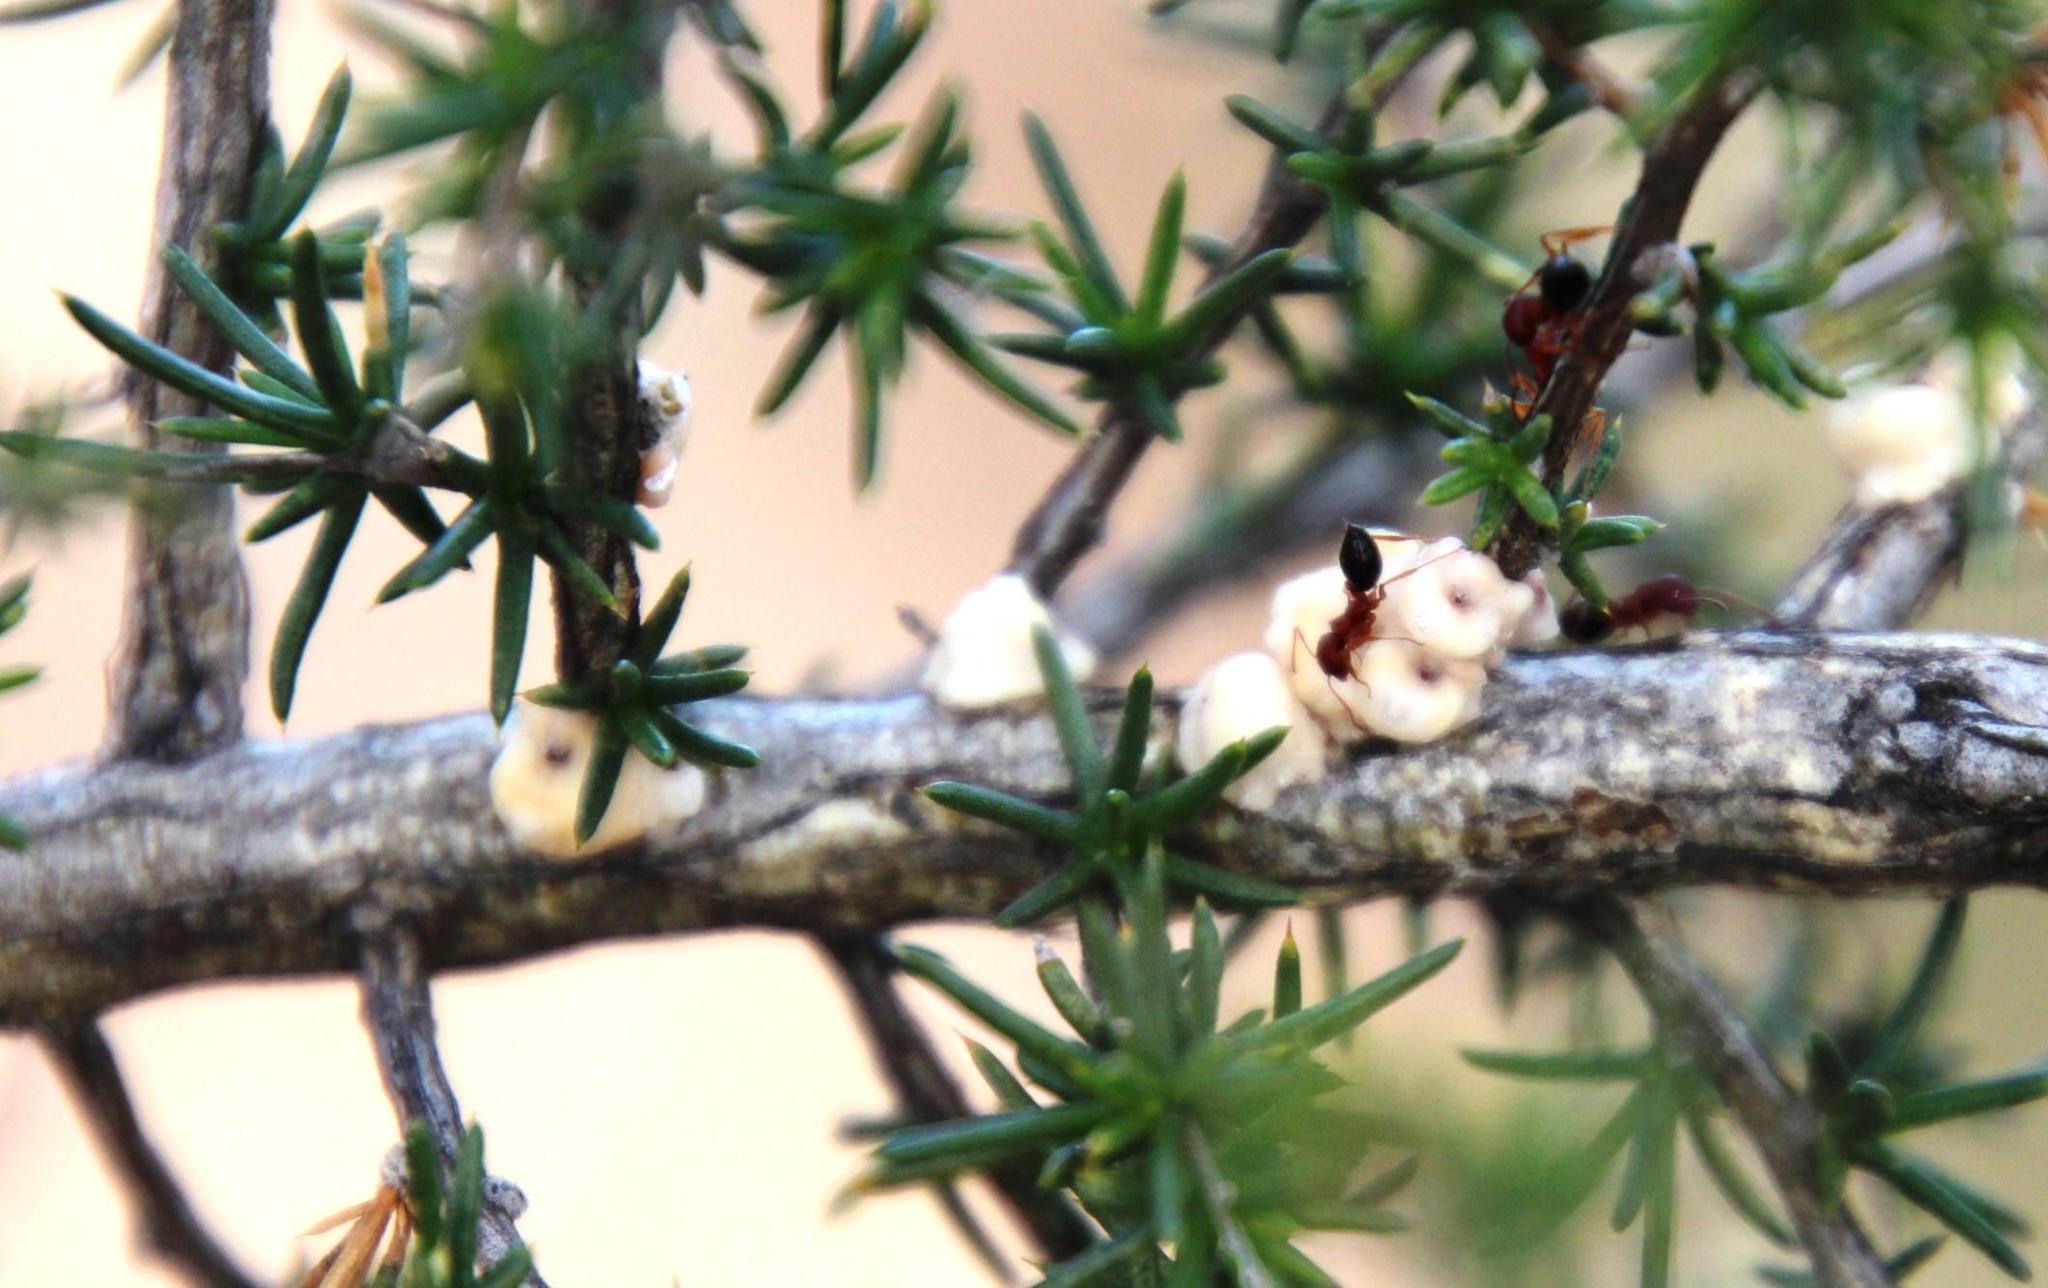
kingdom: Plantae
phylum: Tracheophyta
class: Magnoliopsida
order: Fabales
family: Fabaceae
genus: Aspalathus
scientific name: Aspalathus acuminata
